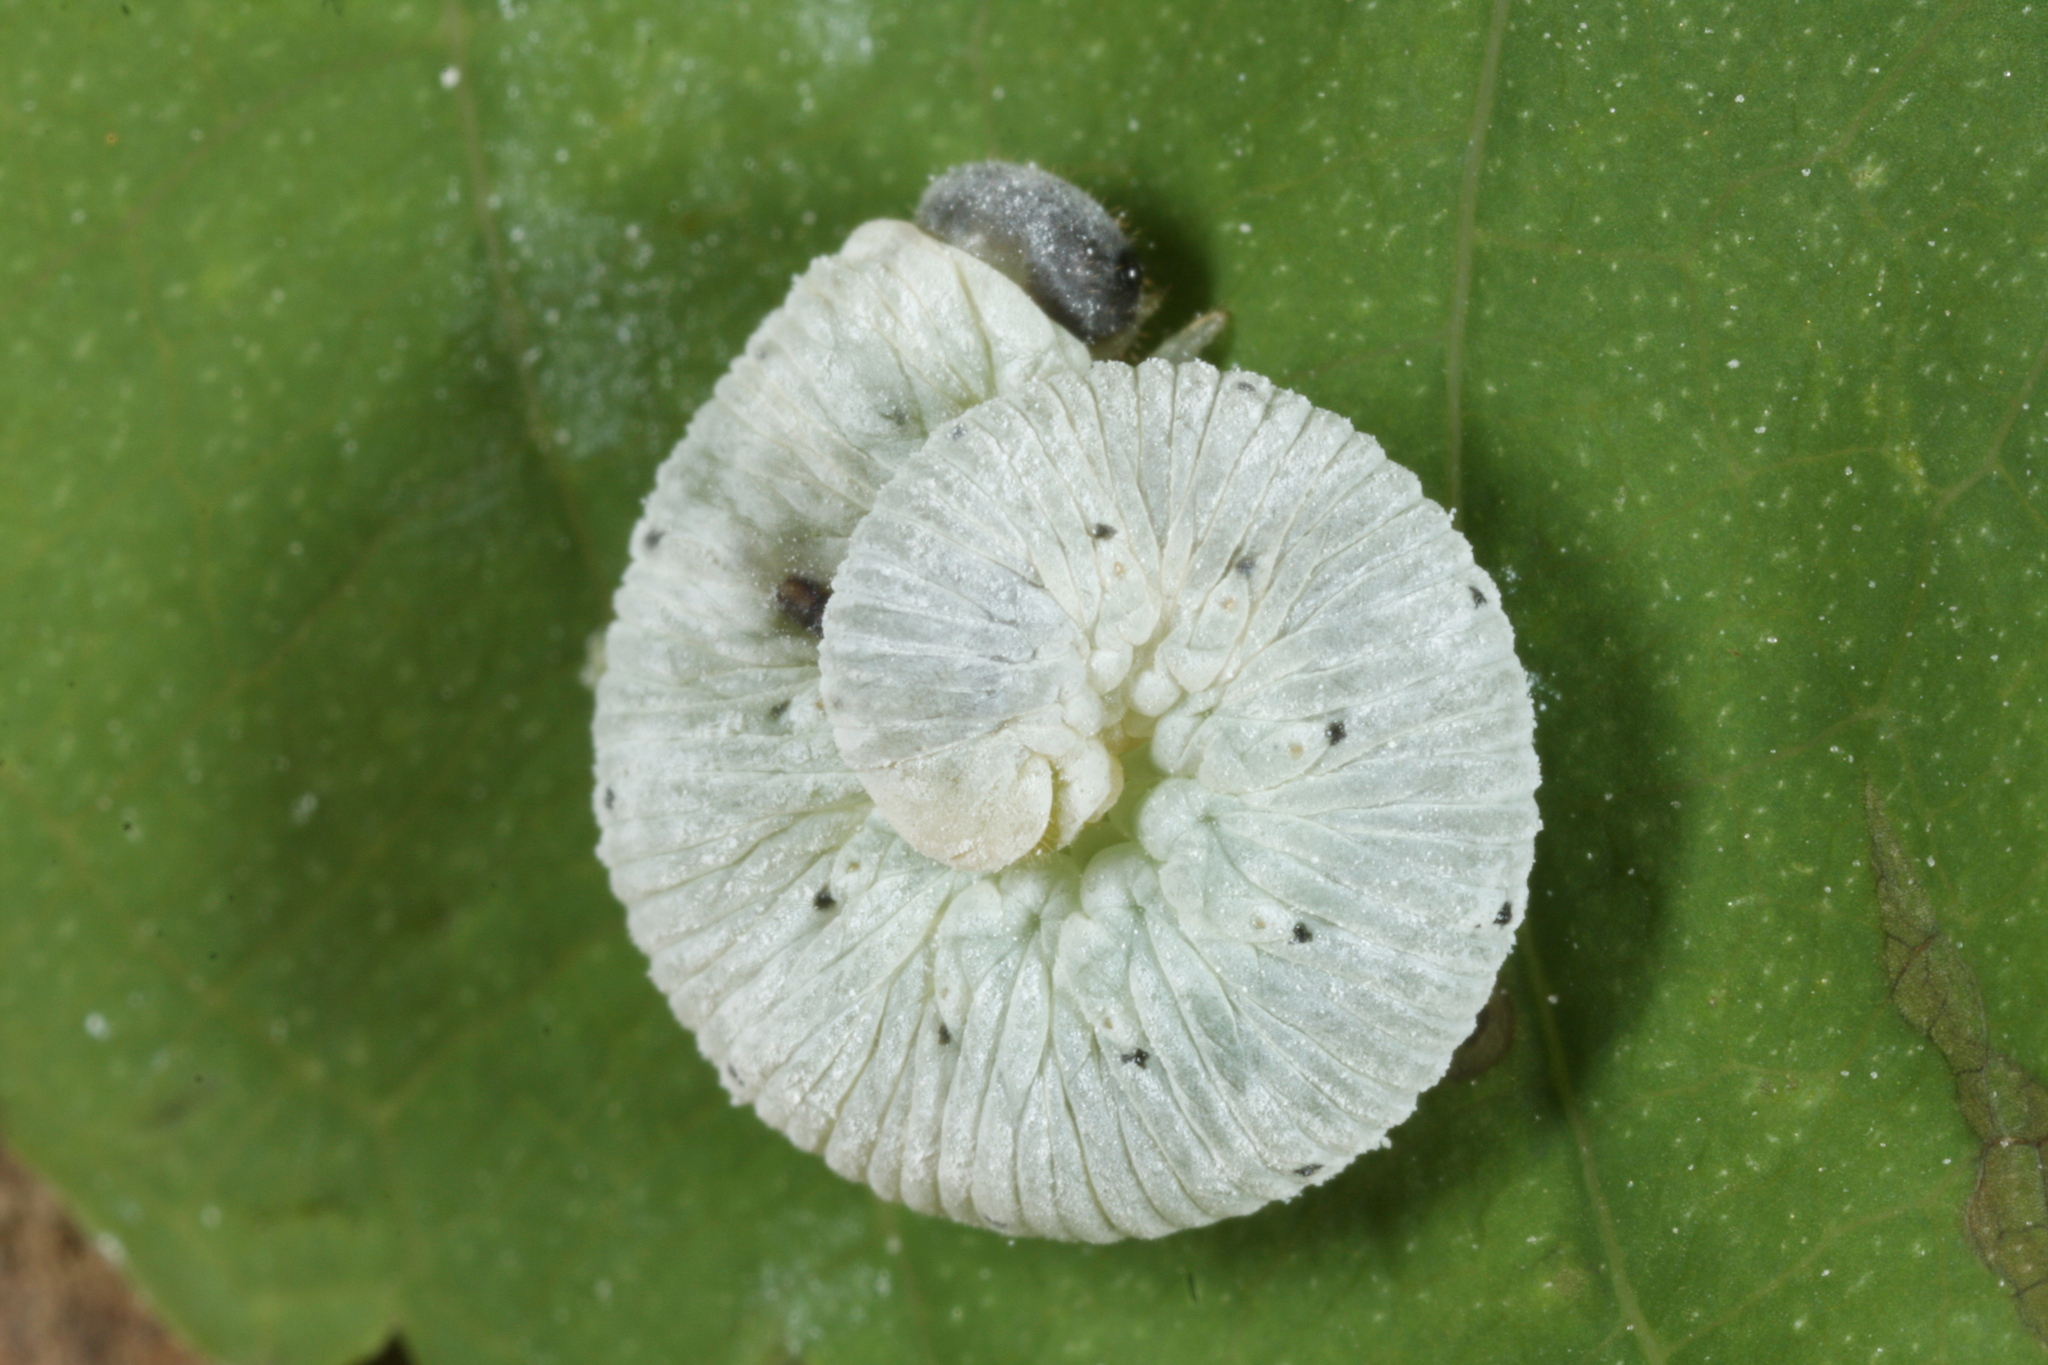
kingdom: Animalia
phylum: Arthropoda
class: Insecta
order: Hymenoptera
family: Tenthredinidae
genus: Aglaostigma
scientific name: Aglaostigma nebulosum
